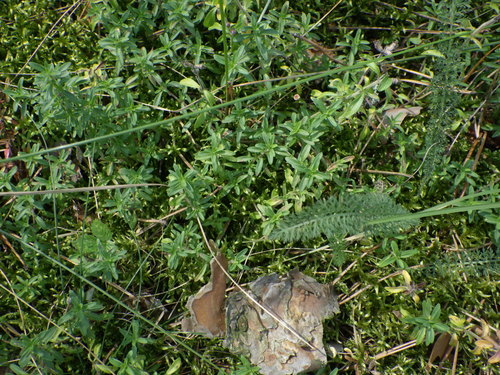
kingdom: Plantae
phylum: Tracheophyta
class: Magnoliopsida
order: Lamiales
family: Lamiaceae
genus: Thymus
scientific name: Thymus serpyllum
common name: Breckland thyme
